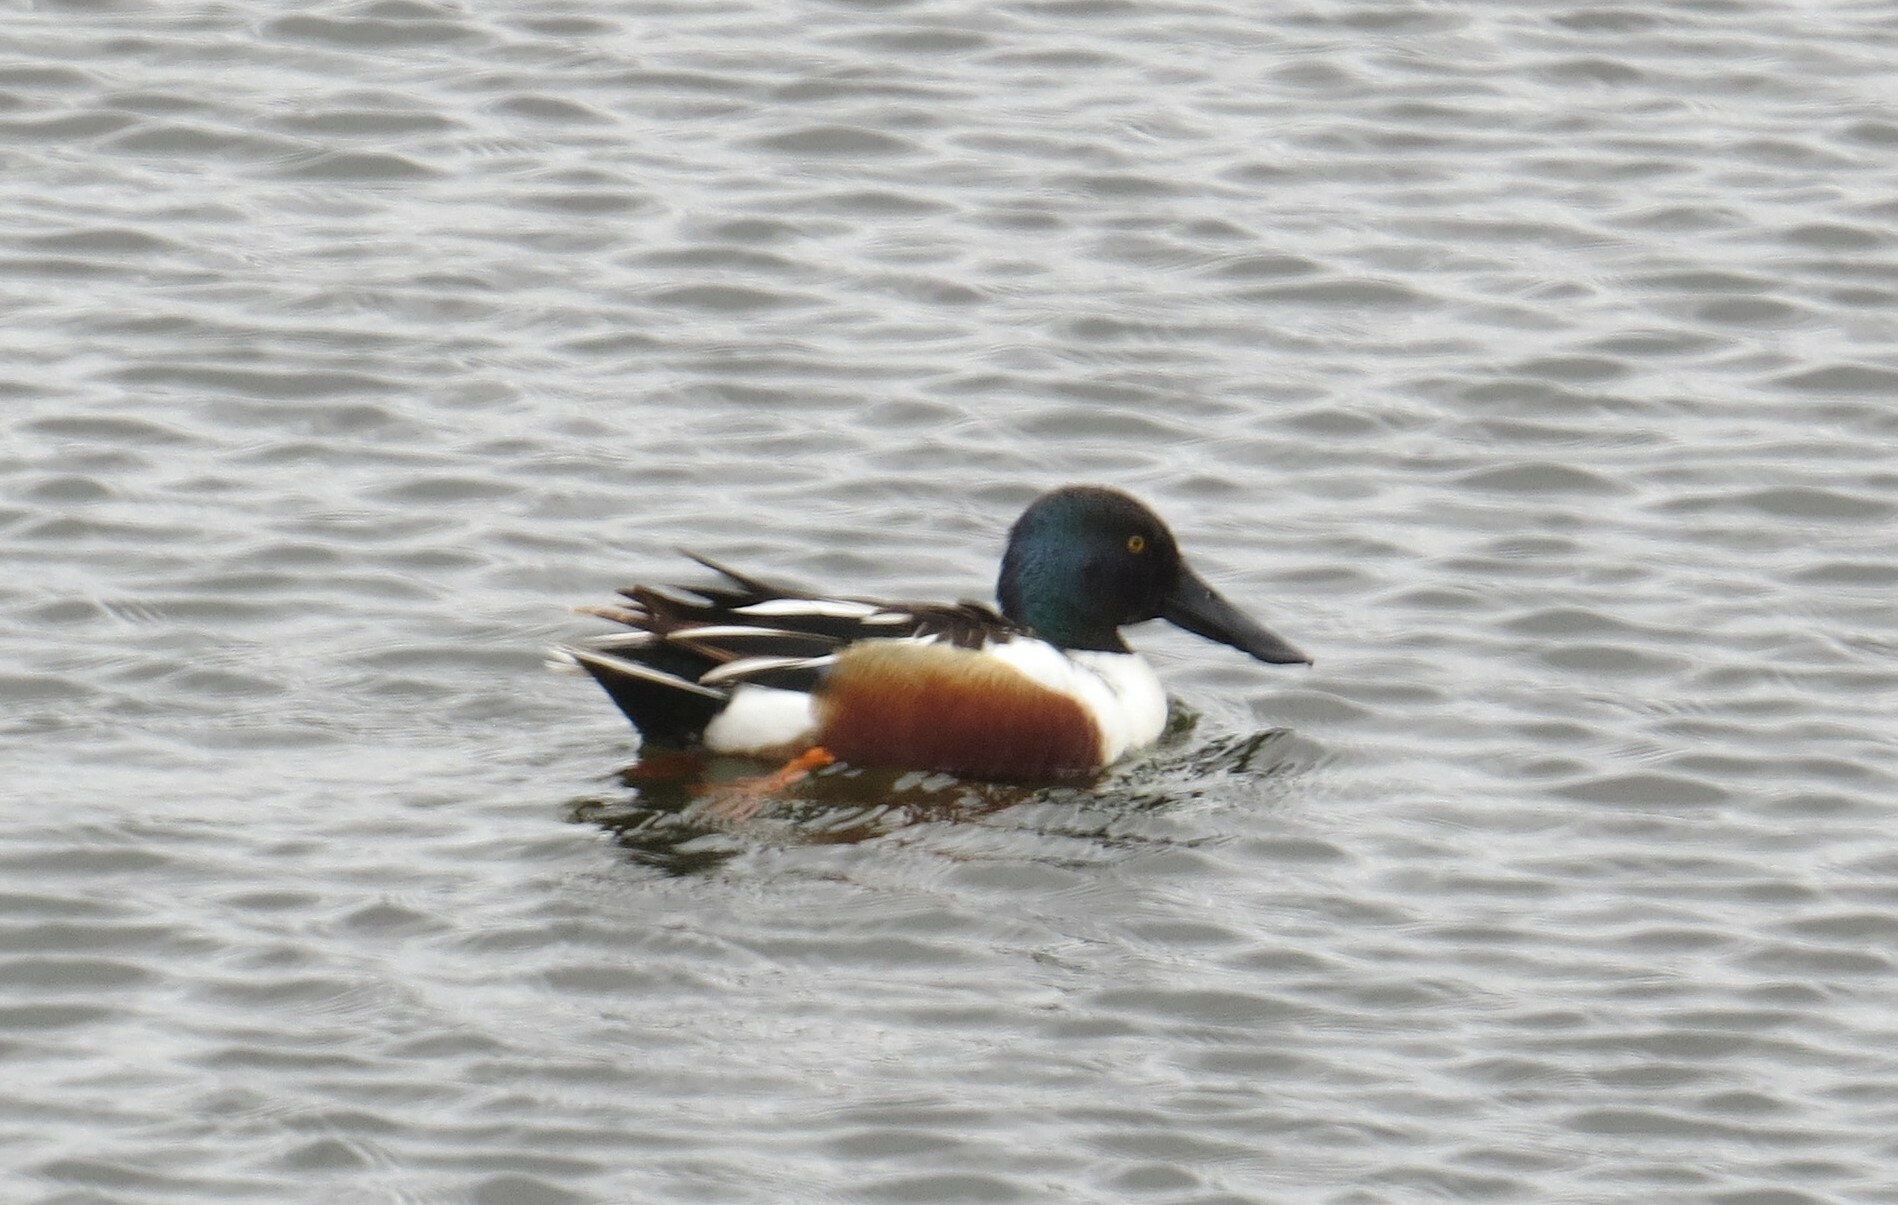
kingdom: Animalia
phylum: Chordata
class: Aves
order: Anseriformes
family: Anatidae
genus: Spatula
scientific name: Spatula clypeata
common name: Northern shoveler
